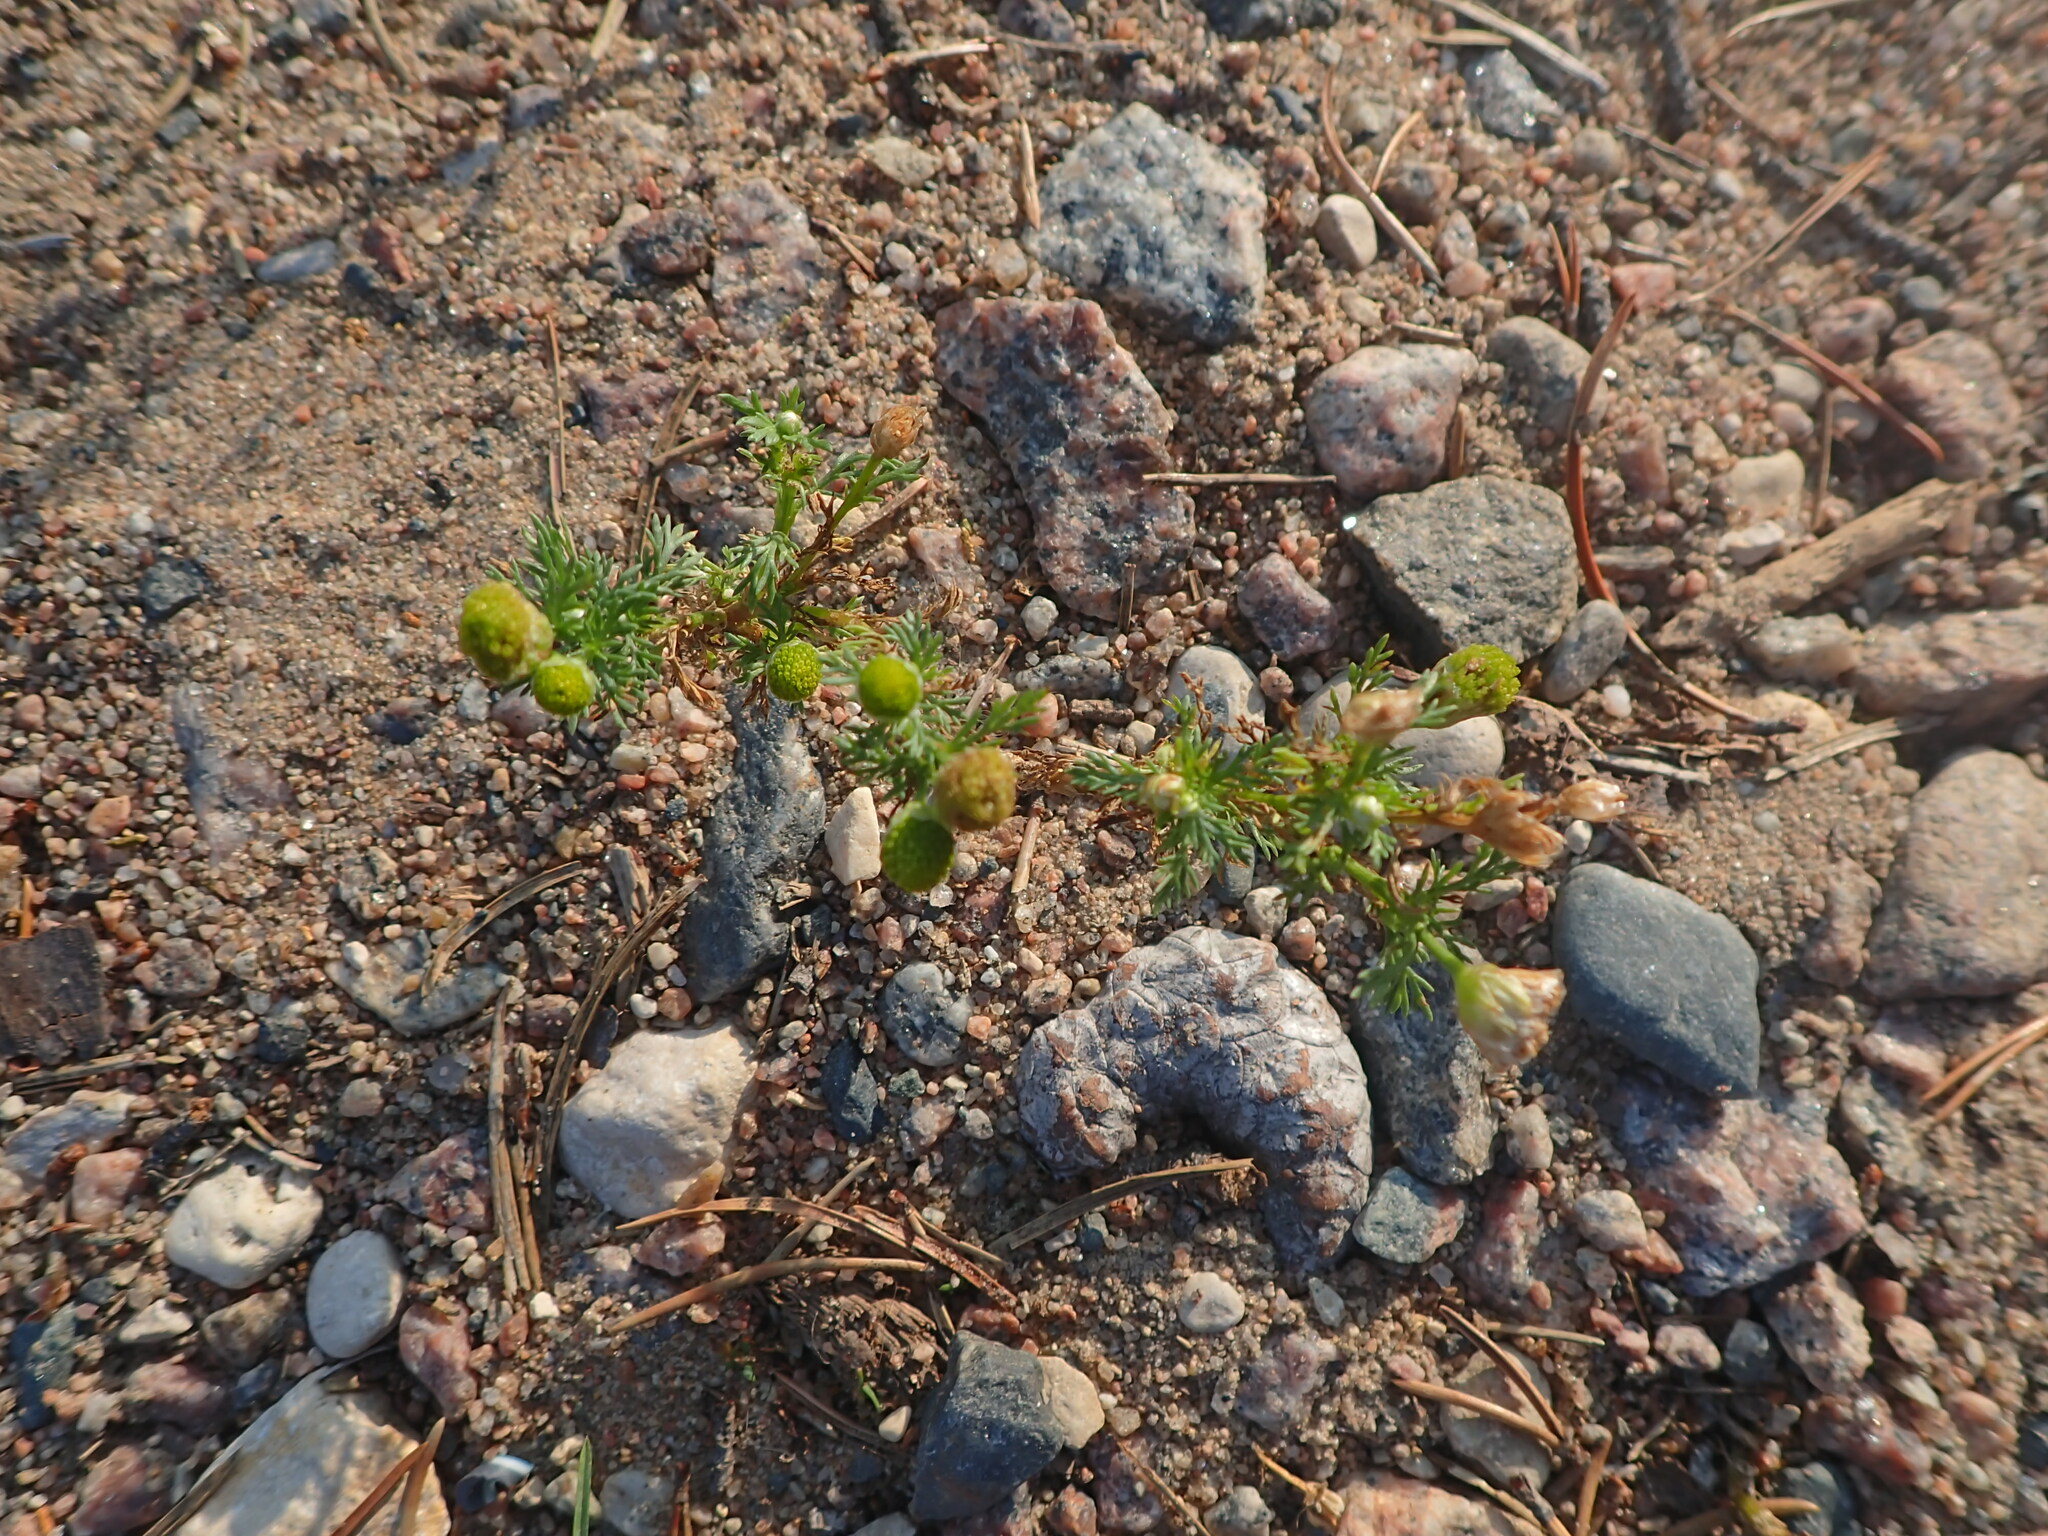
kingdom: Plantae
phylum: Tracheophyta
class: Magnoliopsida
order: Asterales
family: Asteraceae
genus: Matricaria
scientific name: Matricaria discoidea
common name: Disc mayweed
